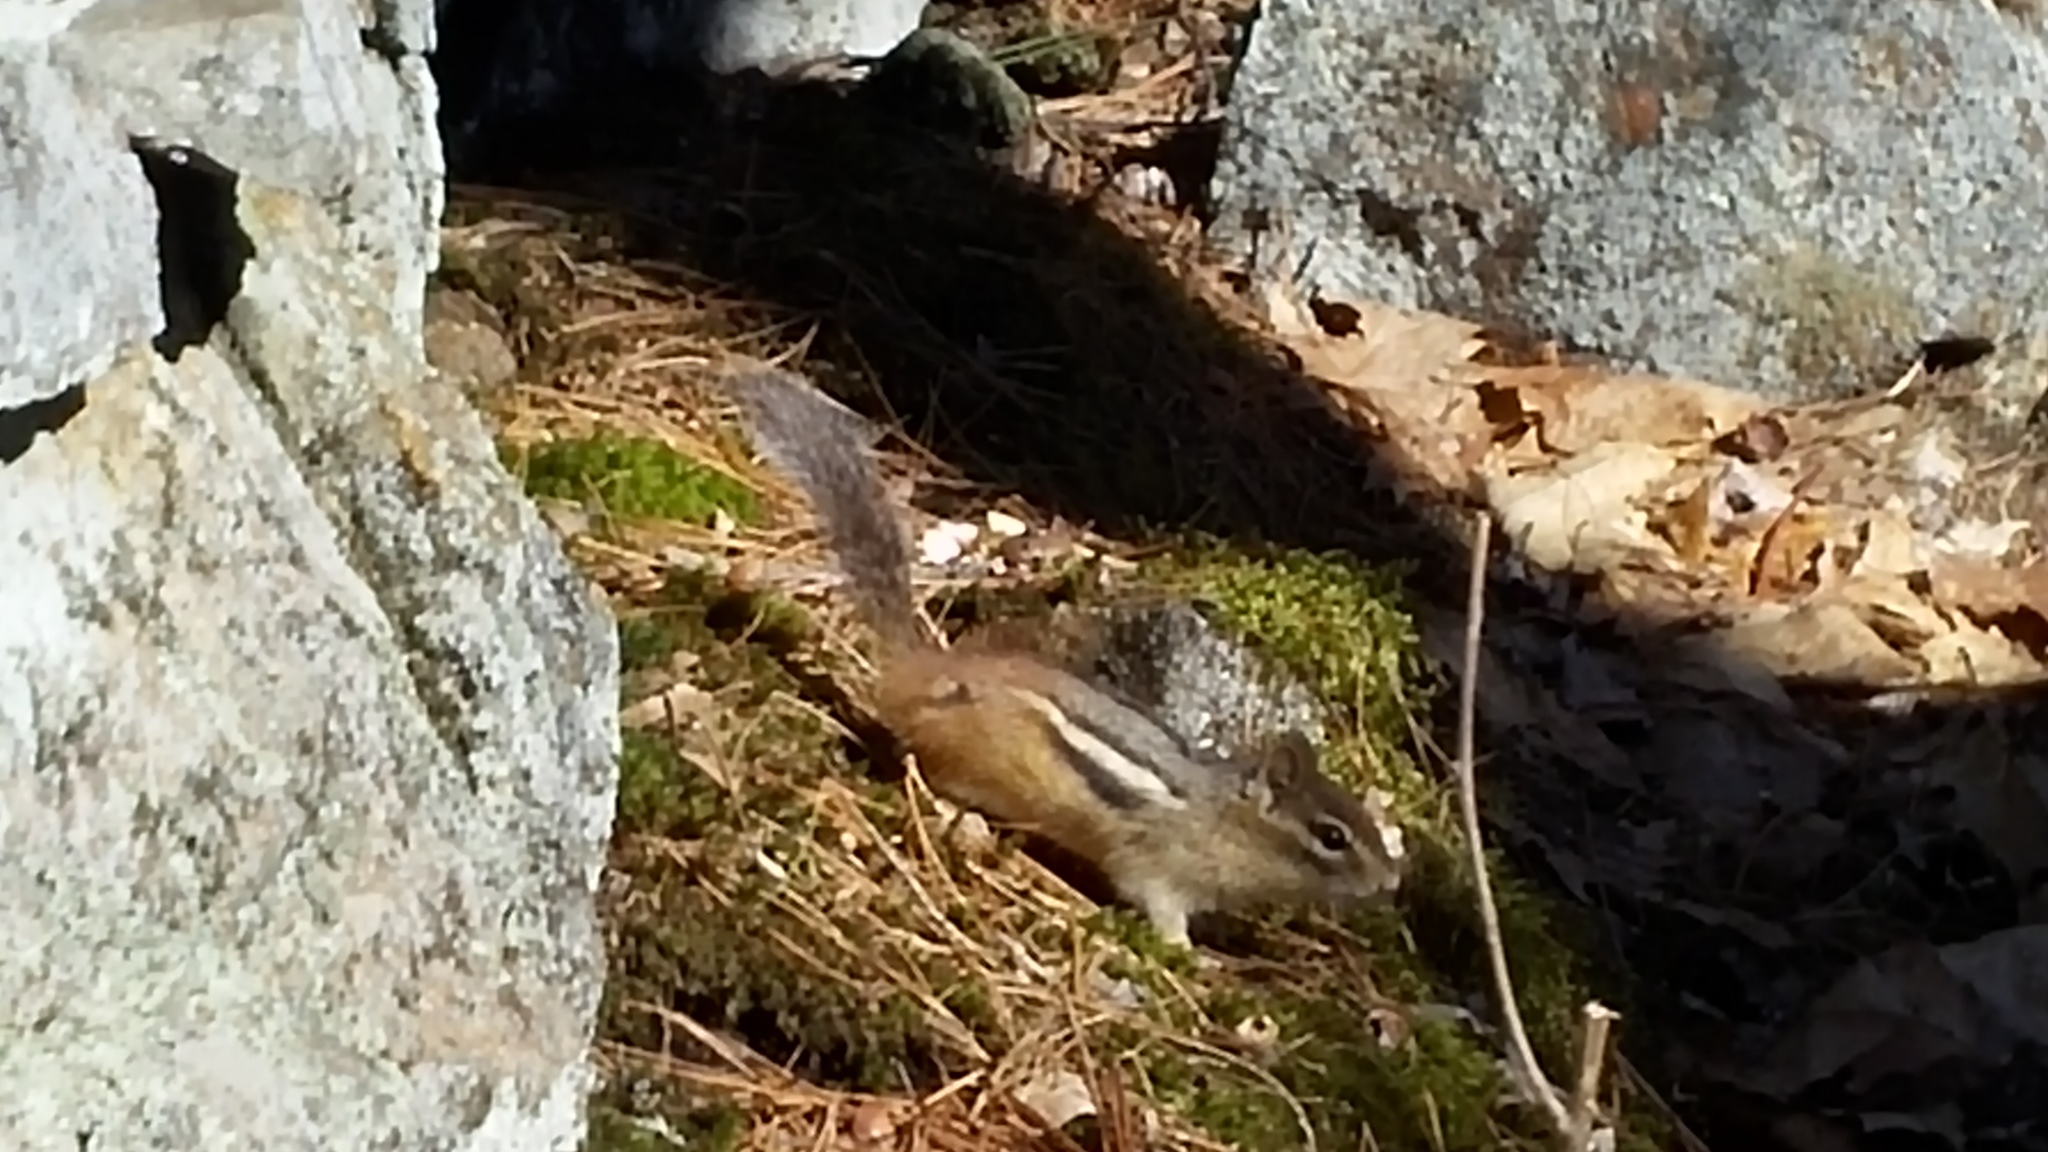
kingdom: Animalia
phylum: Chordata
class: Mammalia
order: Rodentia
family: Sciuridae
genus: Tamias
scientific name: Tamias striatus
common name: Eastern chipmunk
